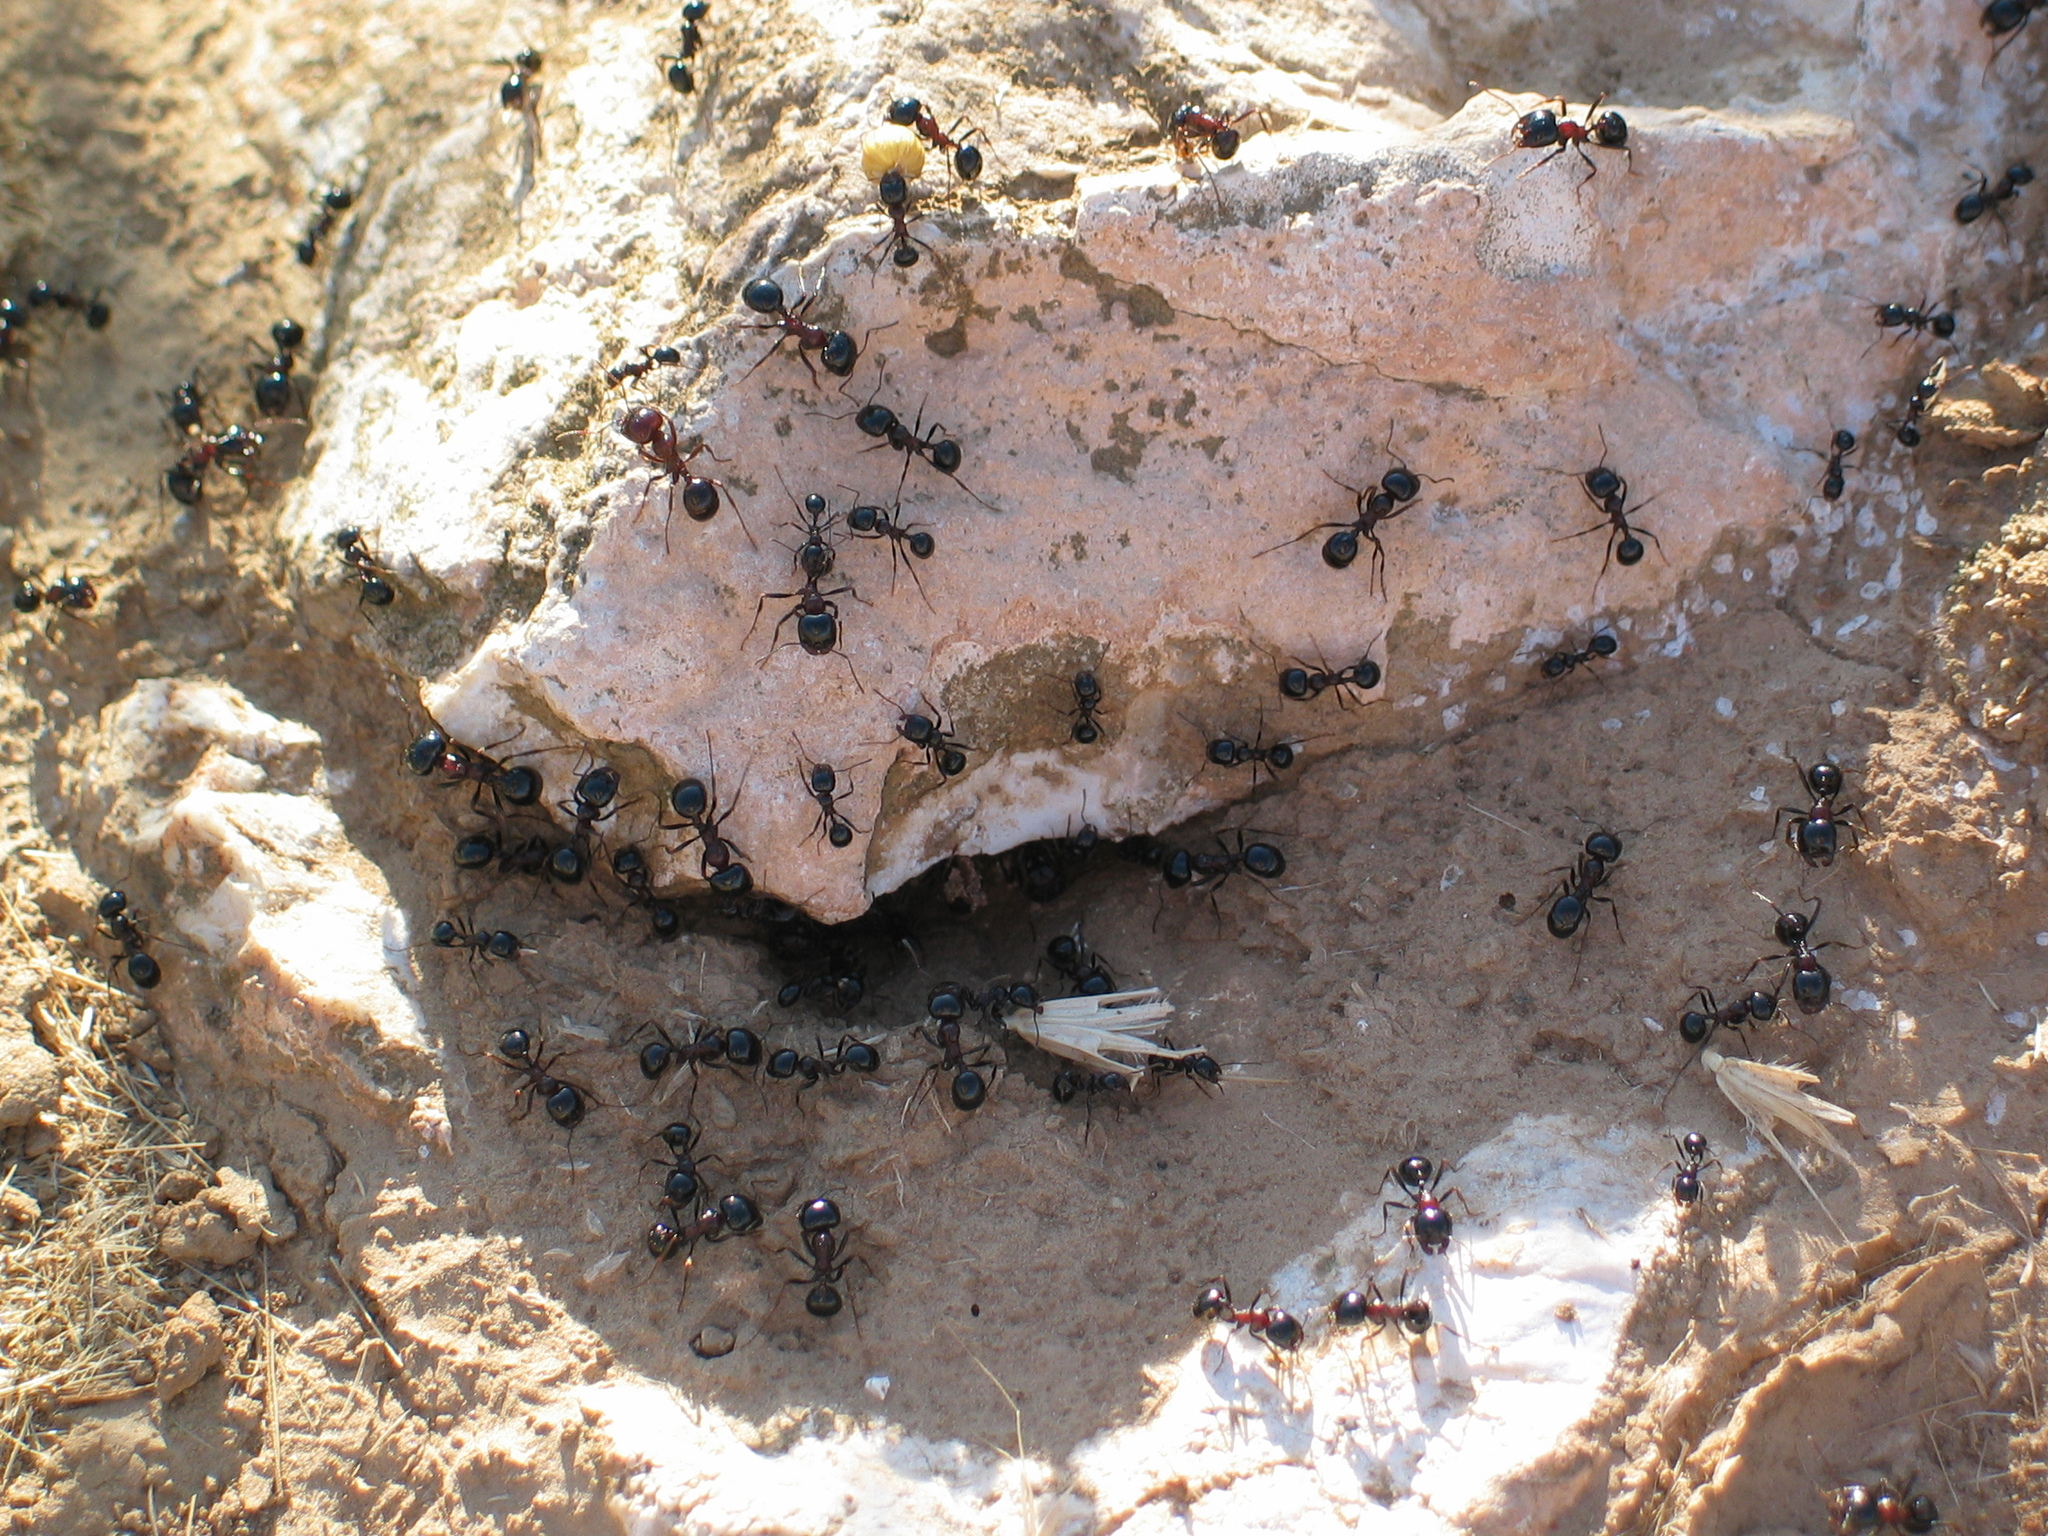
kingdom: Animalia
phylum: Arthropoda
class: Insecta
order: Hymenoptera
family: Formicidae
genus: Messor
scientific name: Messor wasmanni
